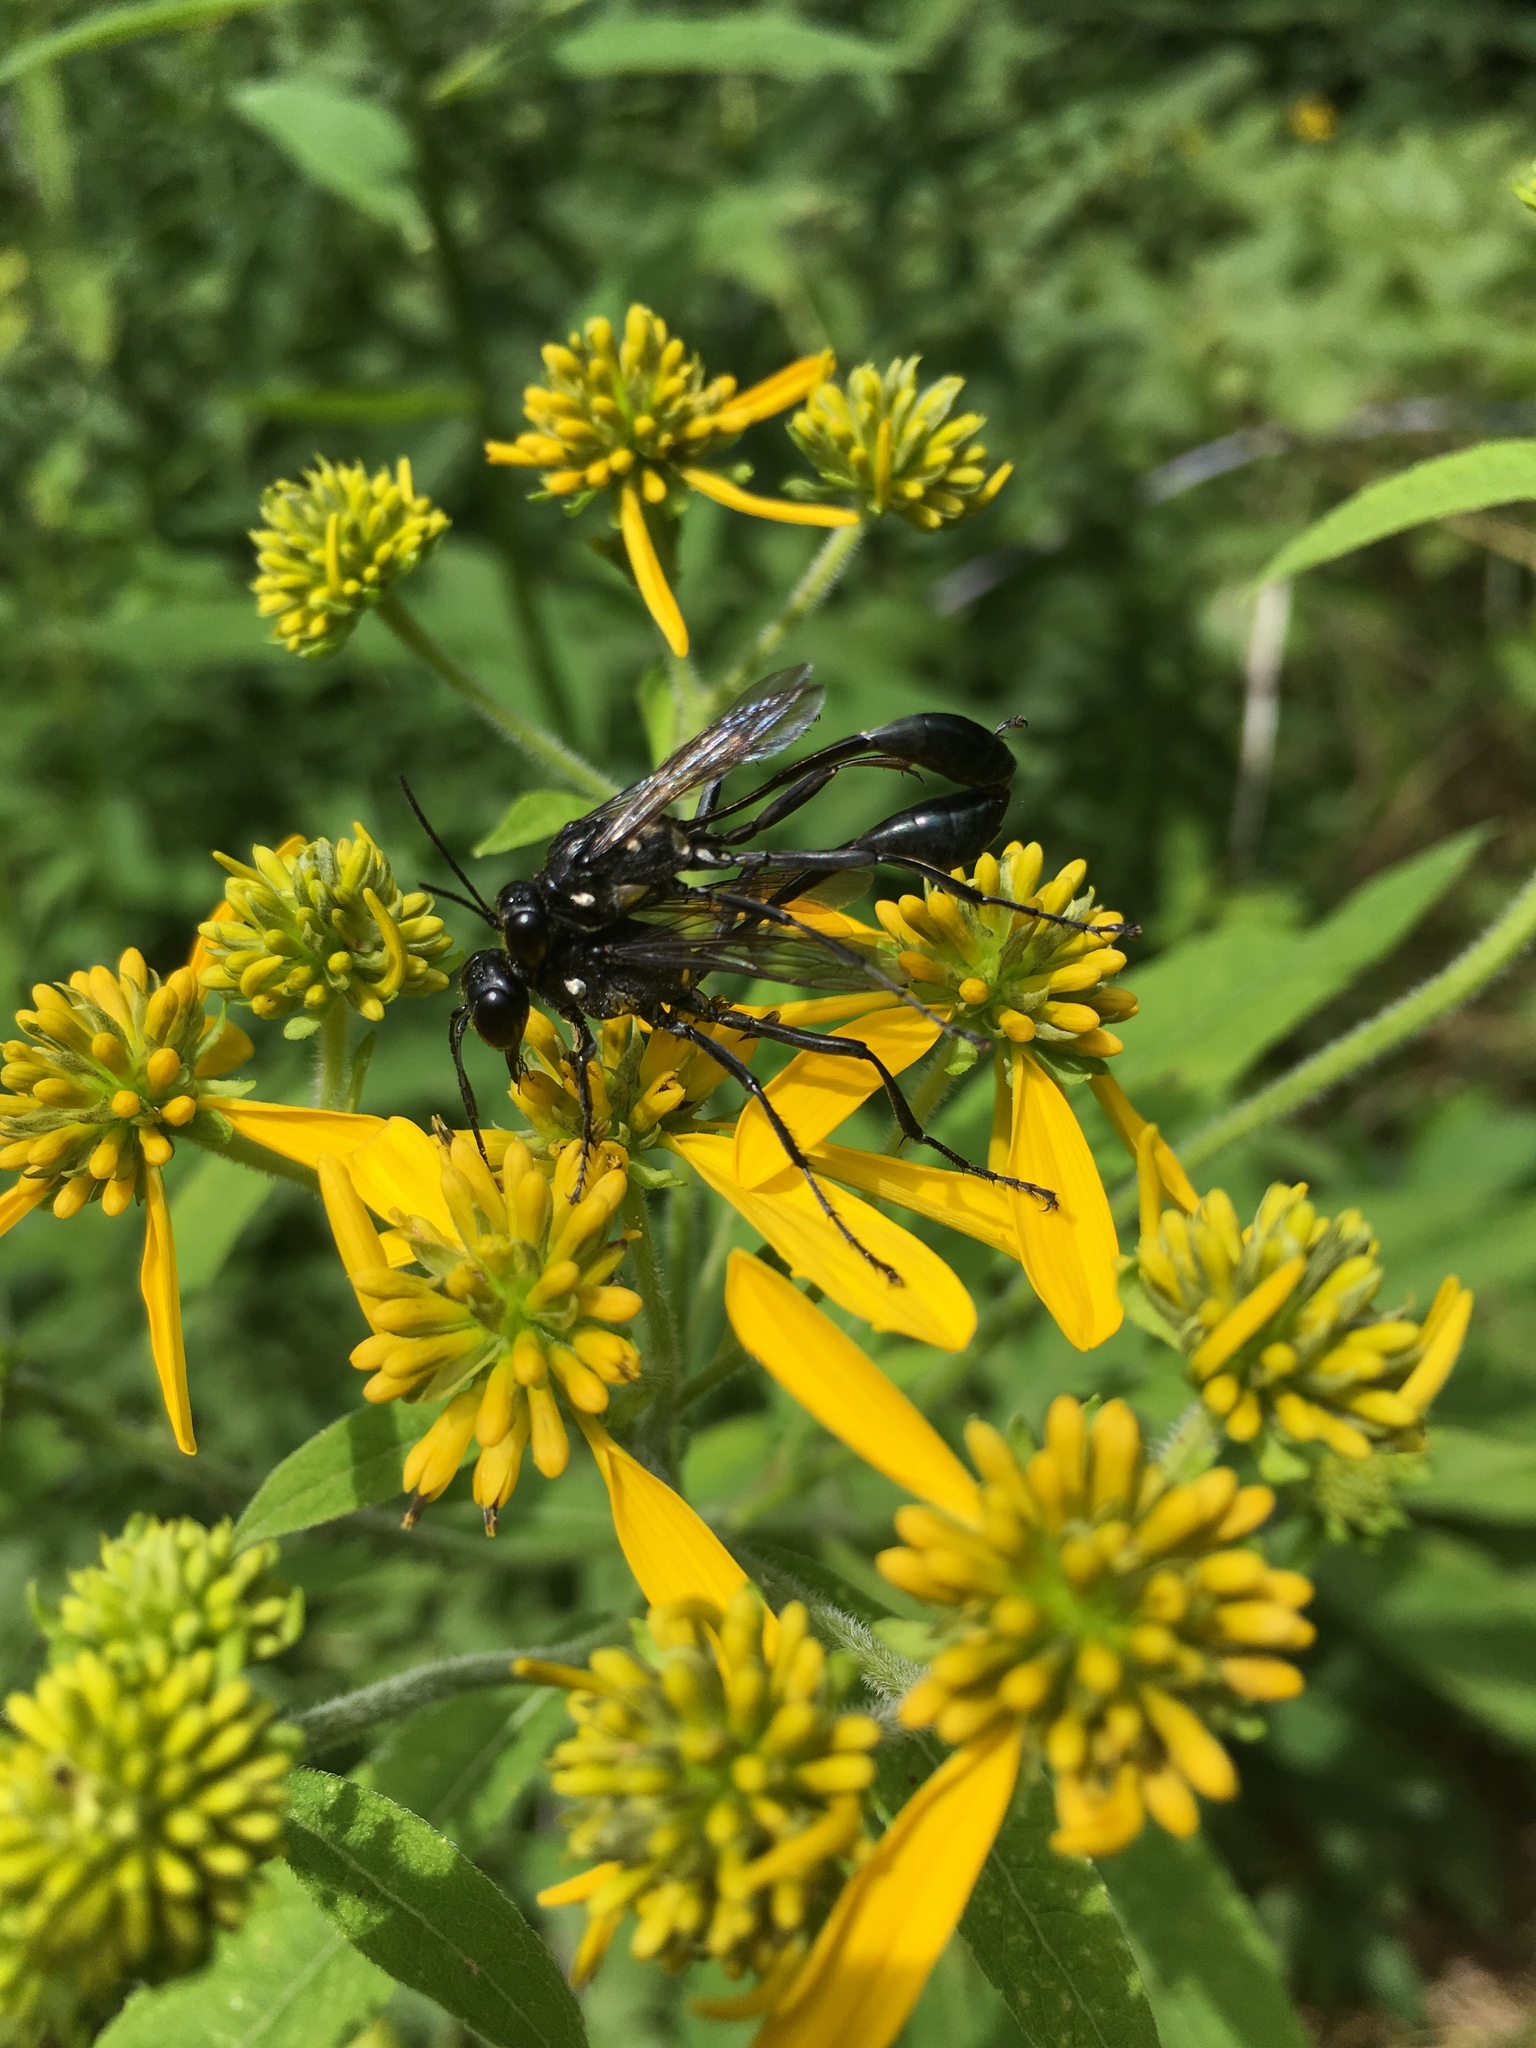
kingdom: Animalia
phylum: Arthropoda
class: Insecta
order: Hymenoptera
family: Sphecidae
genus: Eremnophila
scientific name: Eremnophila aureonotata
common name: Gold-marked thread-waisted wasp
